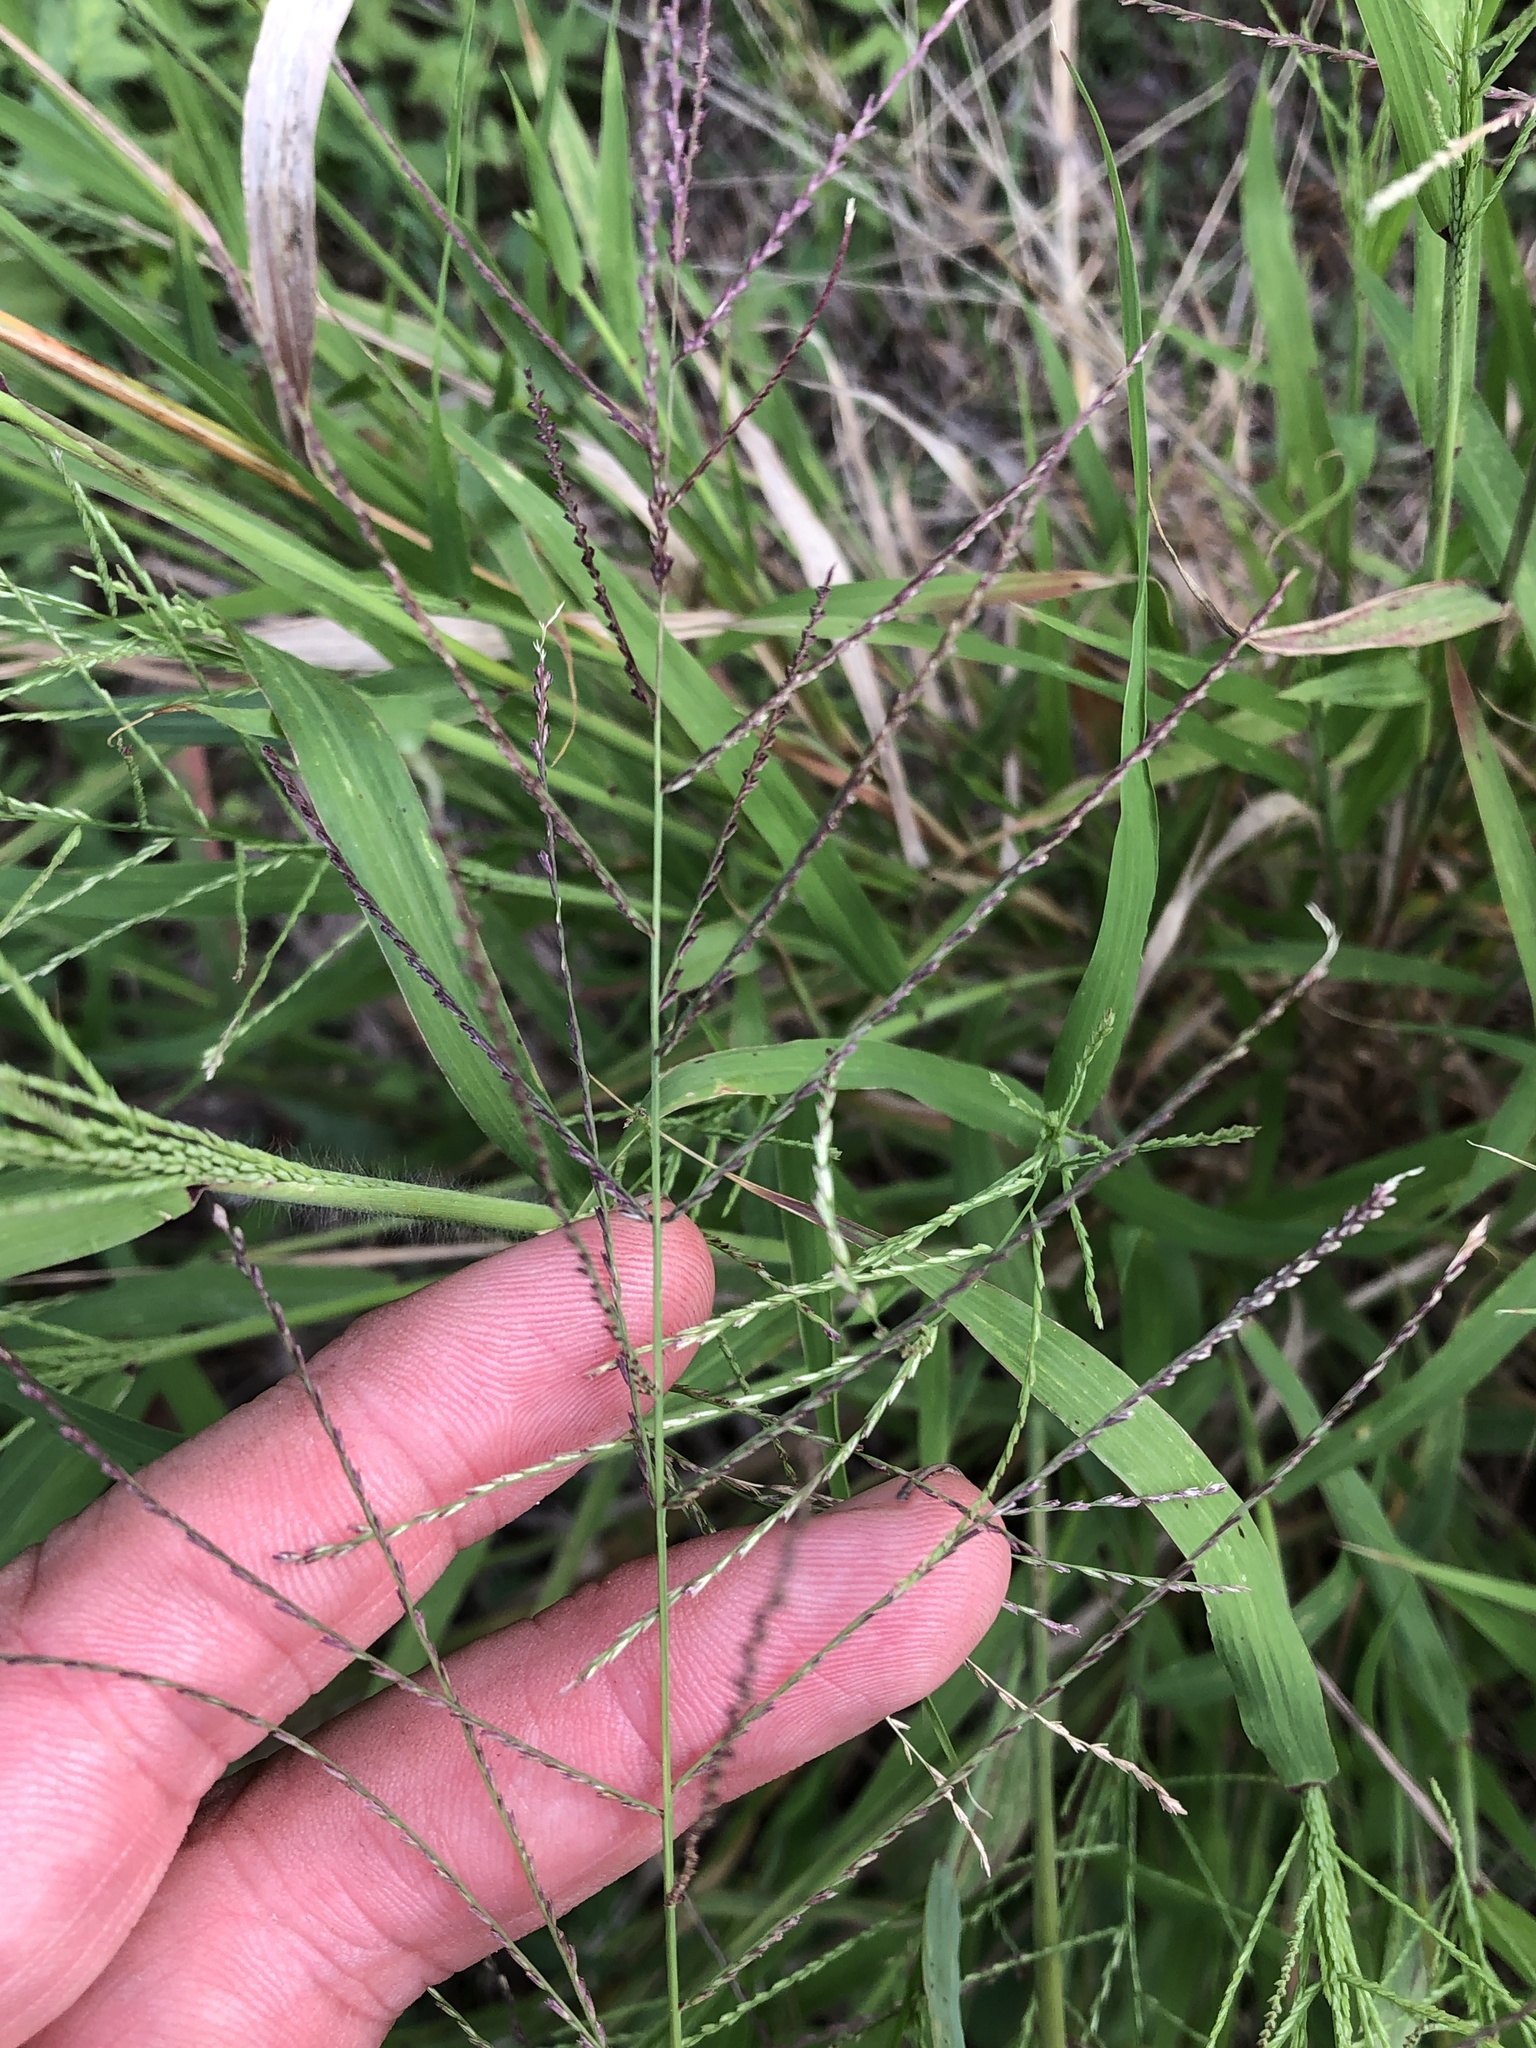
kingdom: Plantae
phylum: Tracheophyta
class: Liliopsida
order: Poales
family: Poaceae
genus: Leptochloa
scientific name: Leptochloa mucronata
